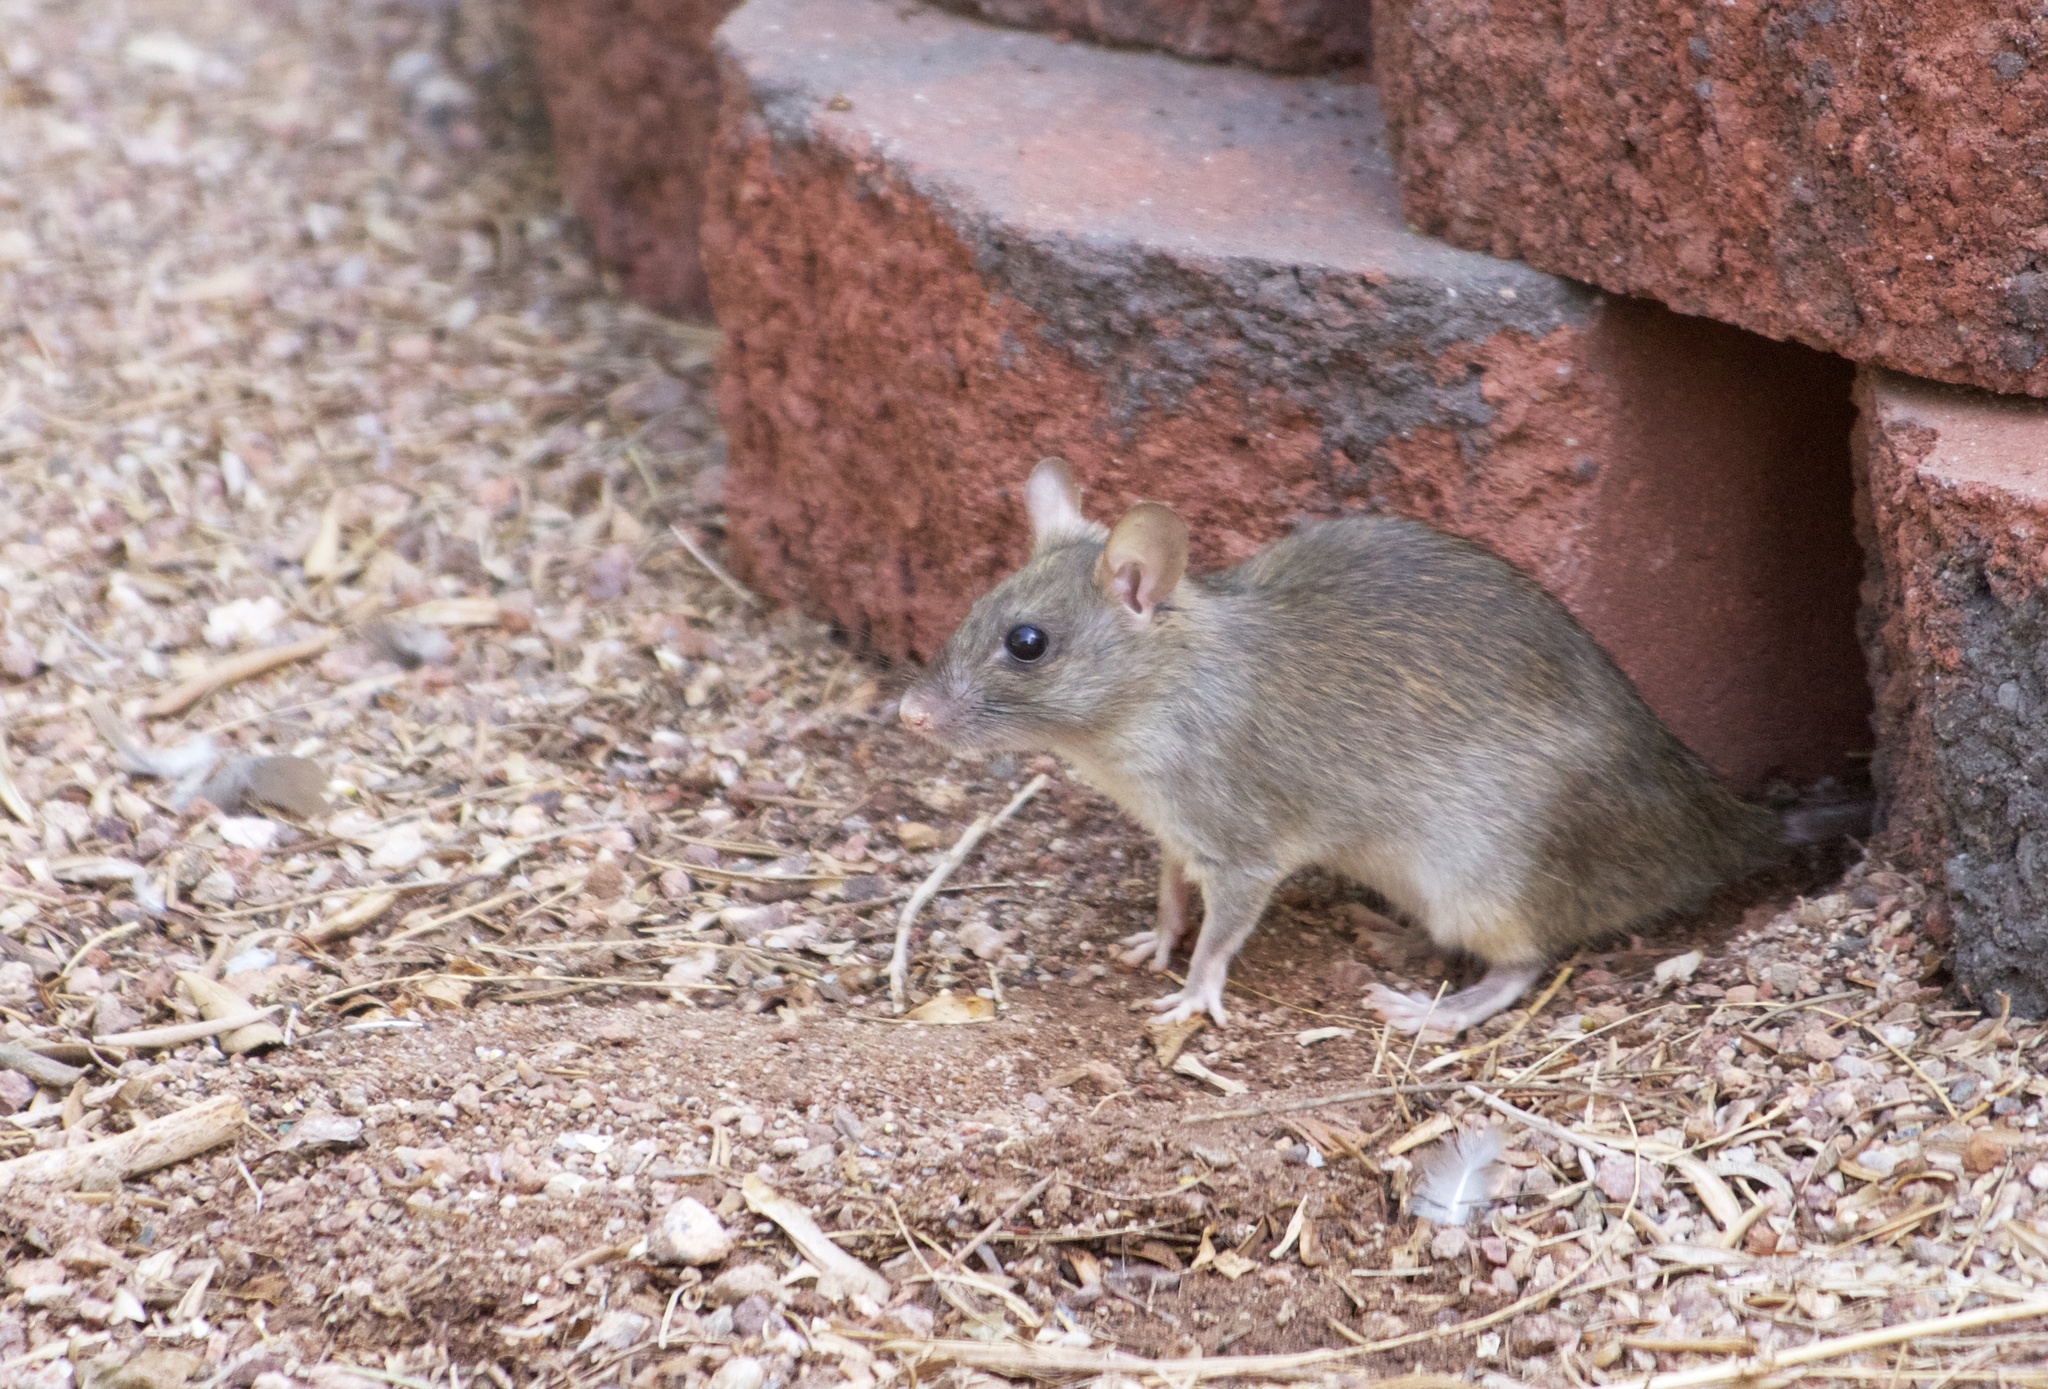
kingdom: Animalia
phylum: Chordata
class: Mammalia
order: Rodentia
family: Muridae
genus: Rattus
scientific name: Rattus norvegicus
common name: Brown rat
